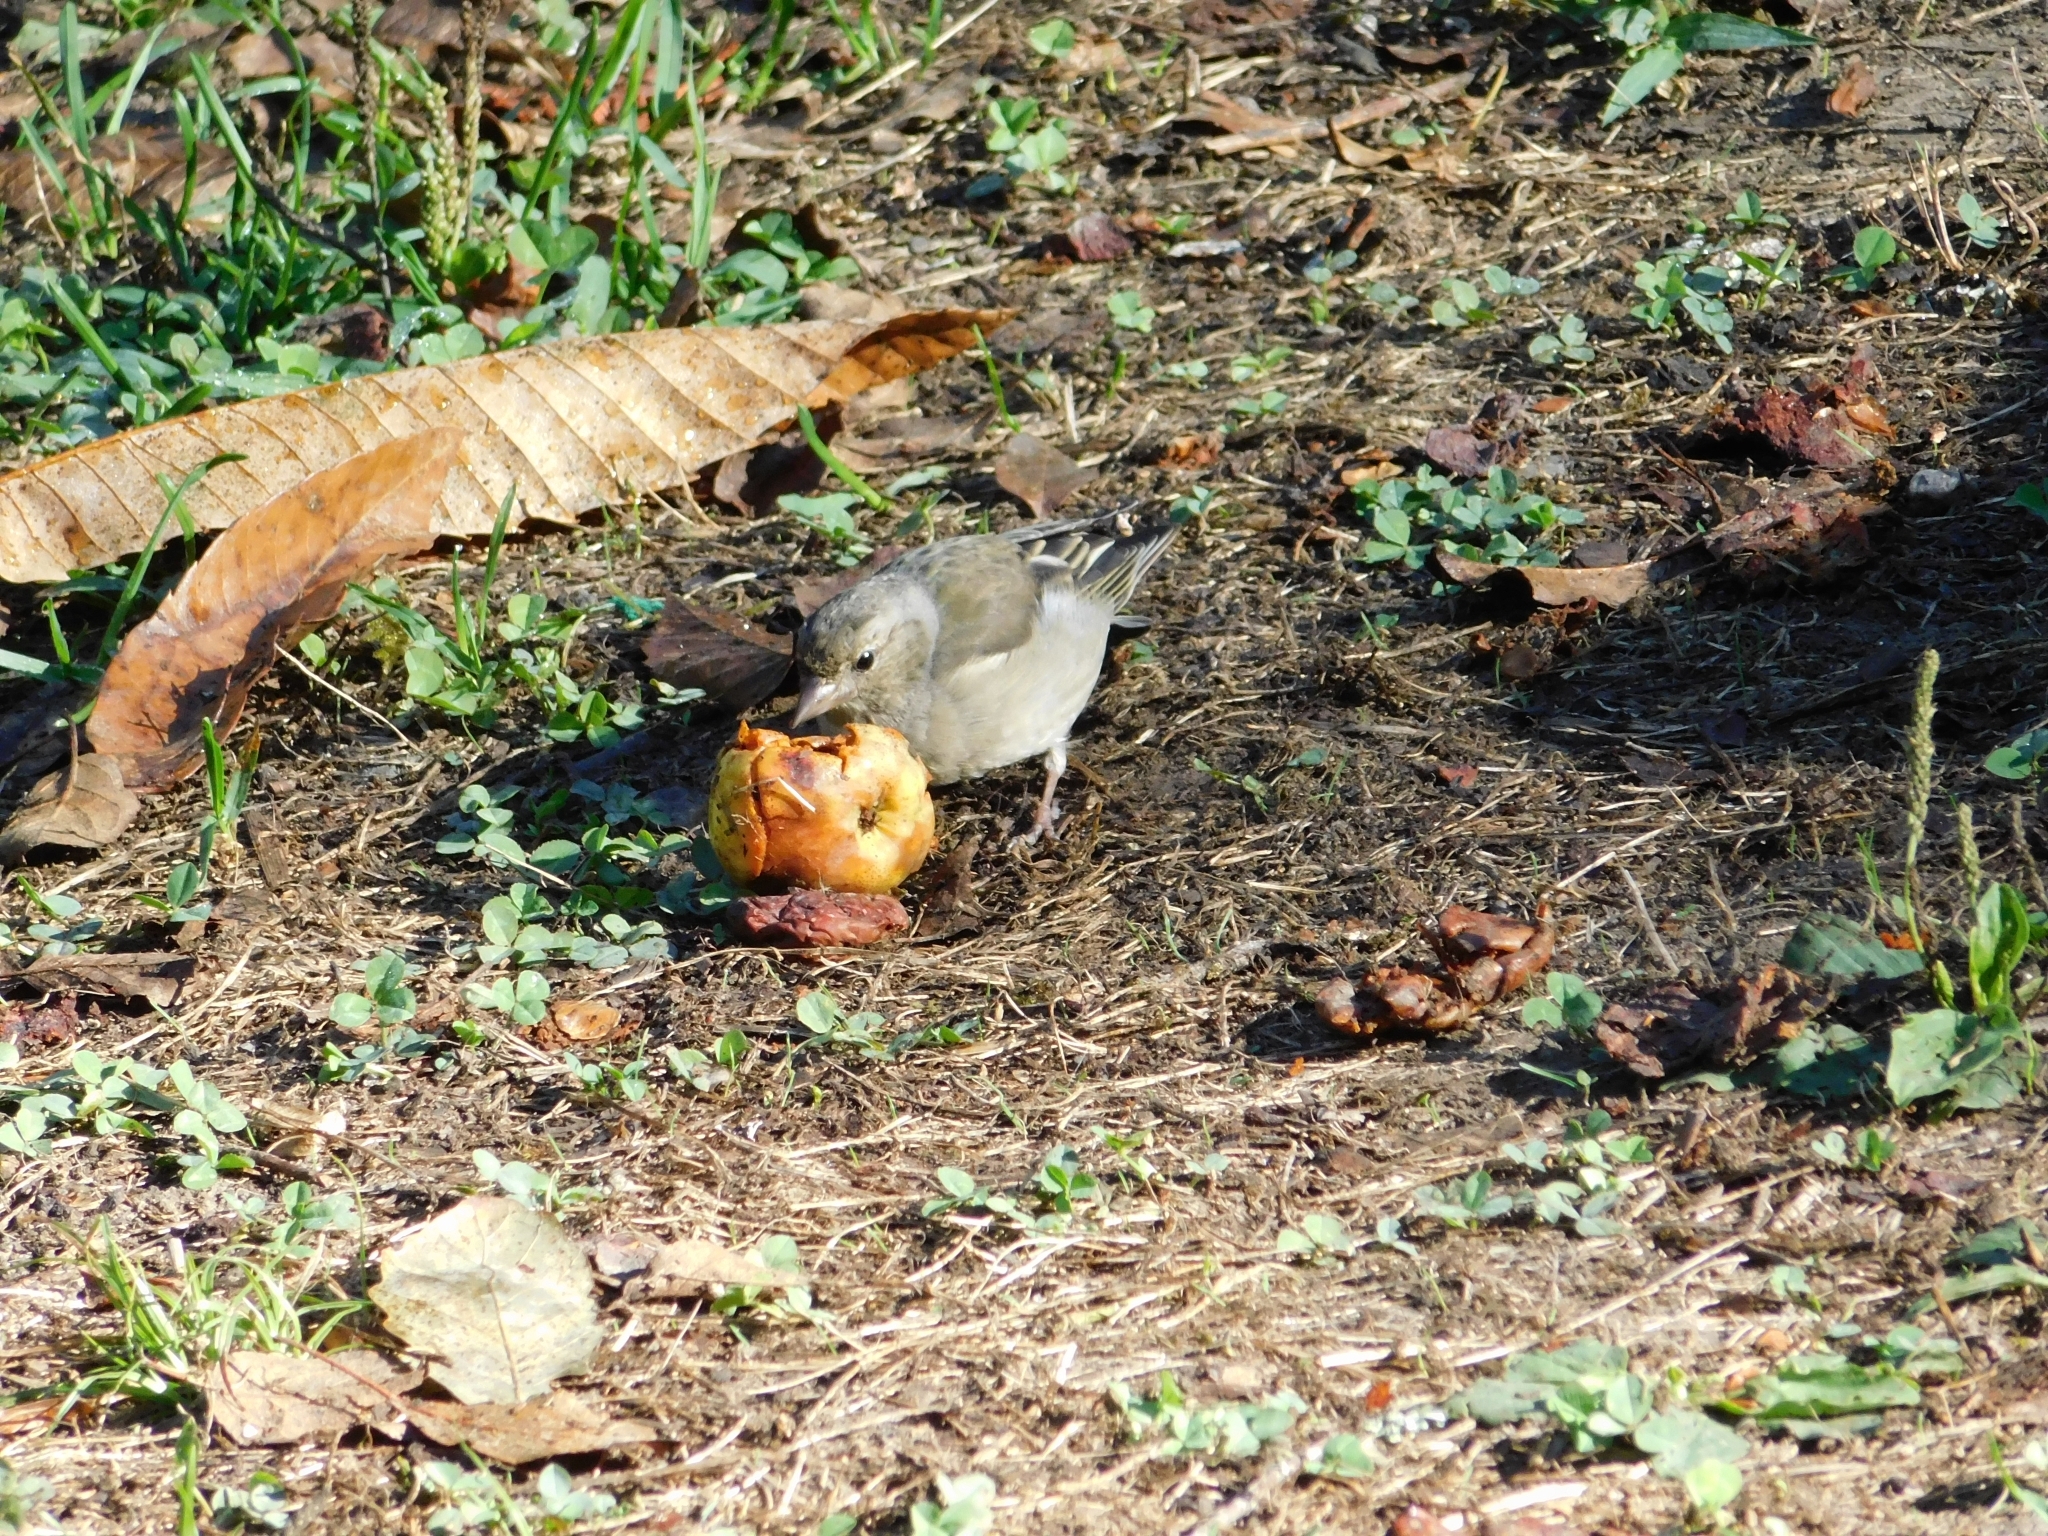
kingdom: Animalia
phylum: Chordata
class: Aves
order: Passeriformes
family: Fringillidae
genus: Fringilla
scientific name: Fringilla coelebs
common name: Common chaffinch
